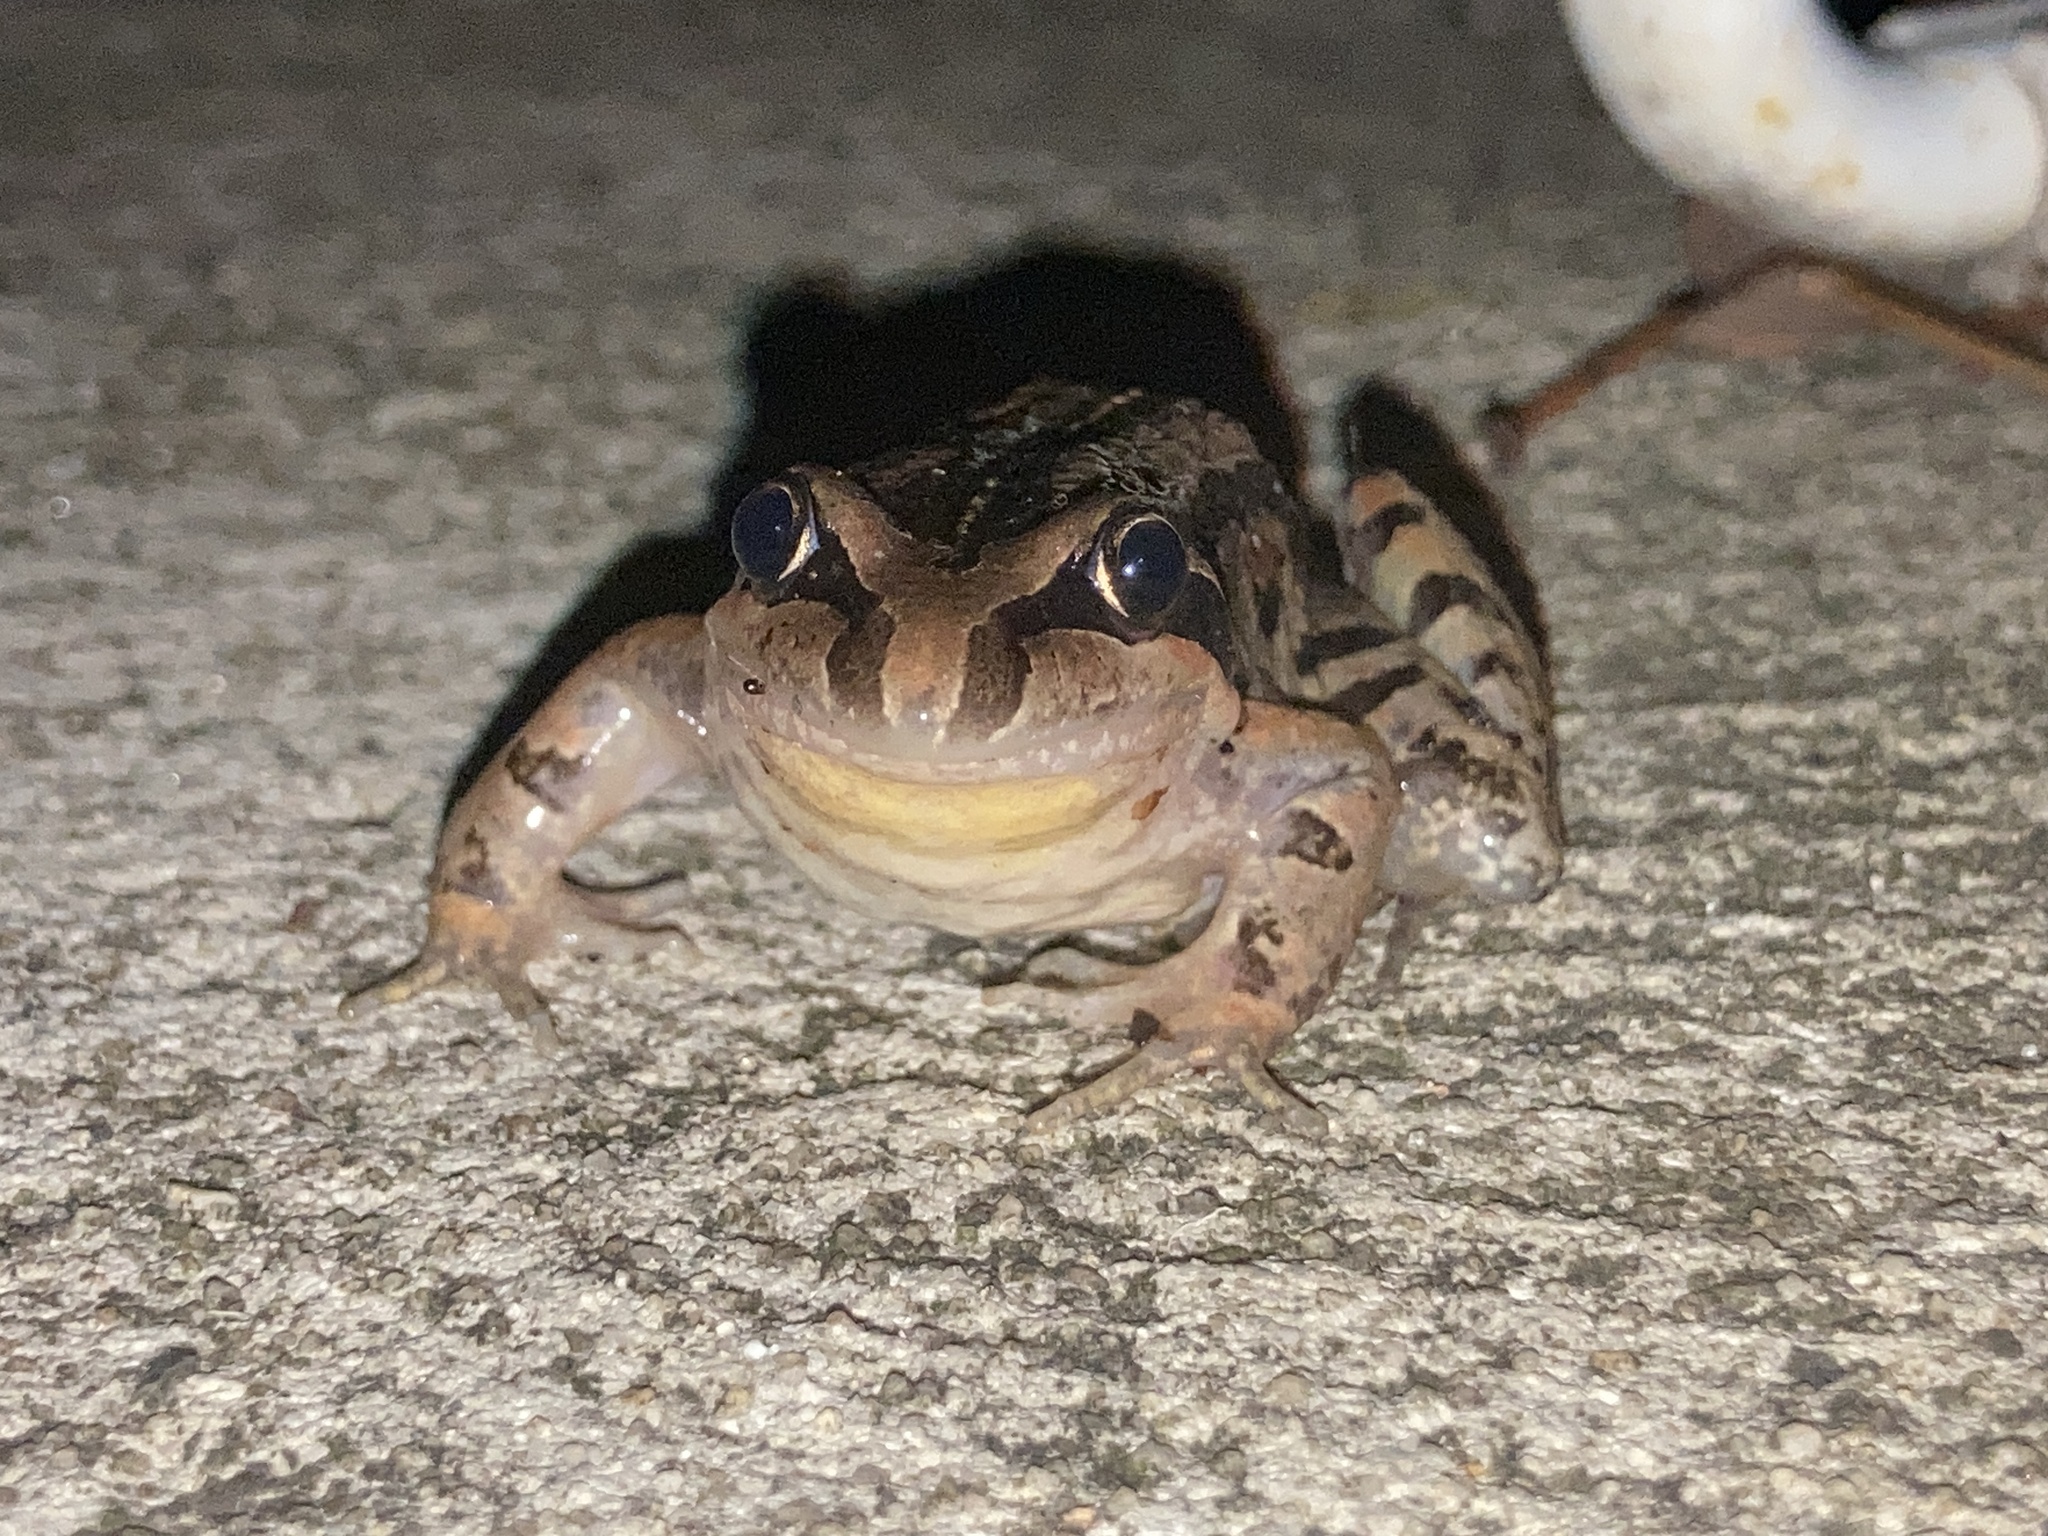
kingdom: Animalia
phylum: Chordata
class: Amphibia
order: Anura
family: Limnodynastidae
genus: Limnodynastes
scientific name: Limnodynastes peronii
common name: Brown frog
